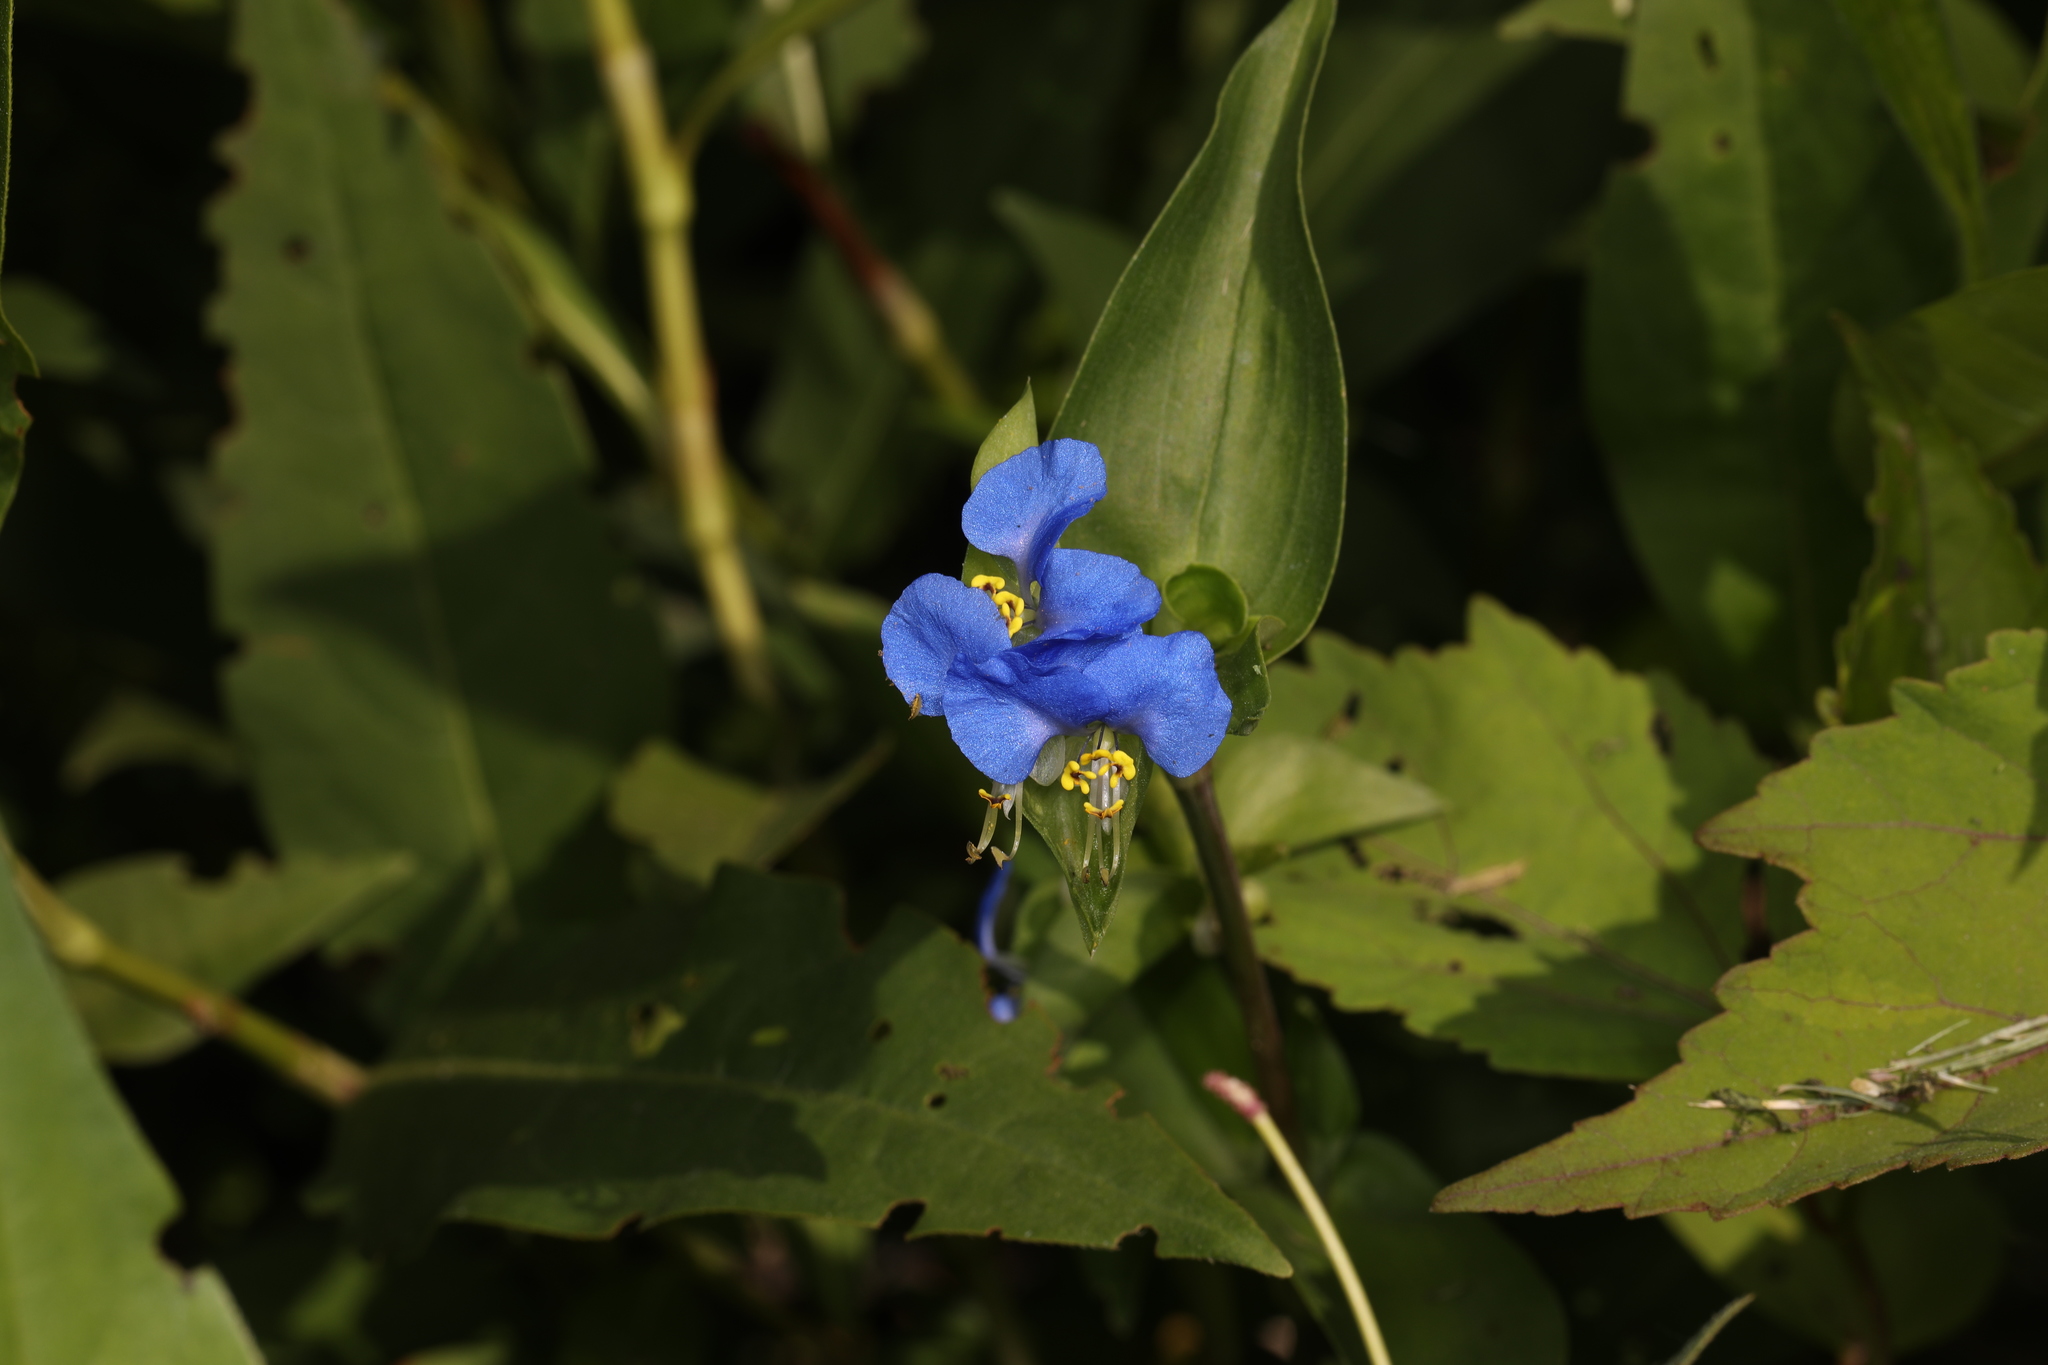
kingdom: Plantae
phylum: Tracheophyta
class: Liliopsida
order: Commelinales
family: Commelinaceae
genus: Commelina
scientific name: Commelina communis
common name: Asiatic dayflower
